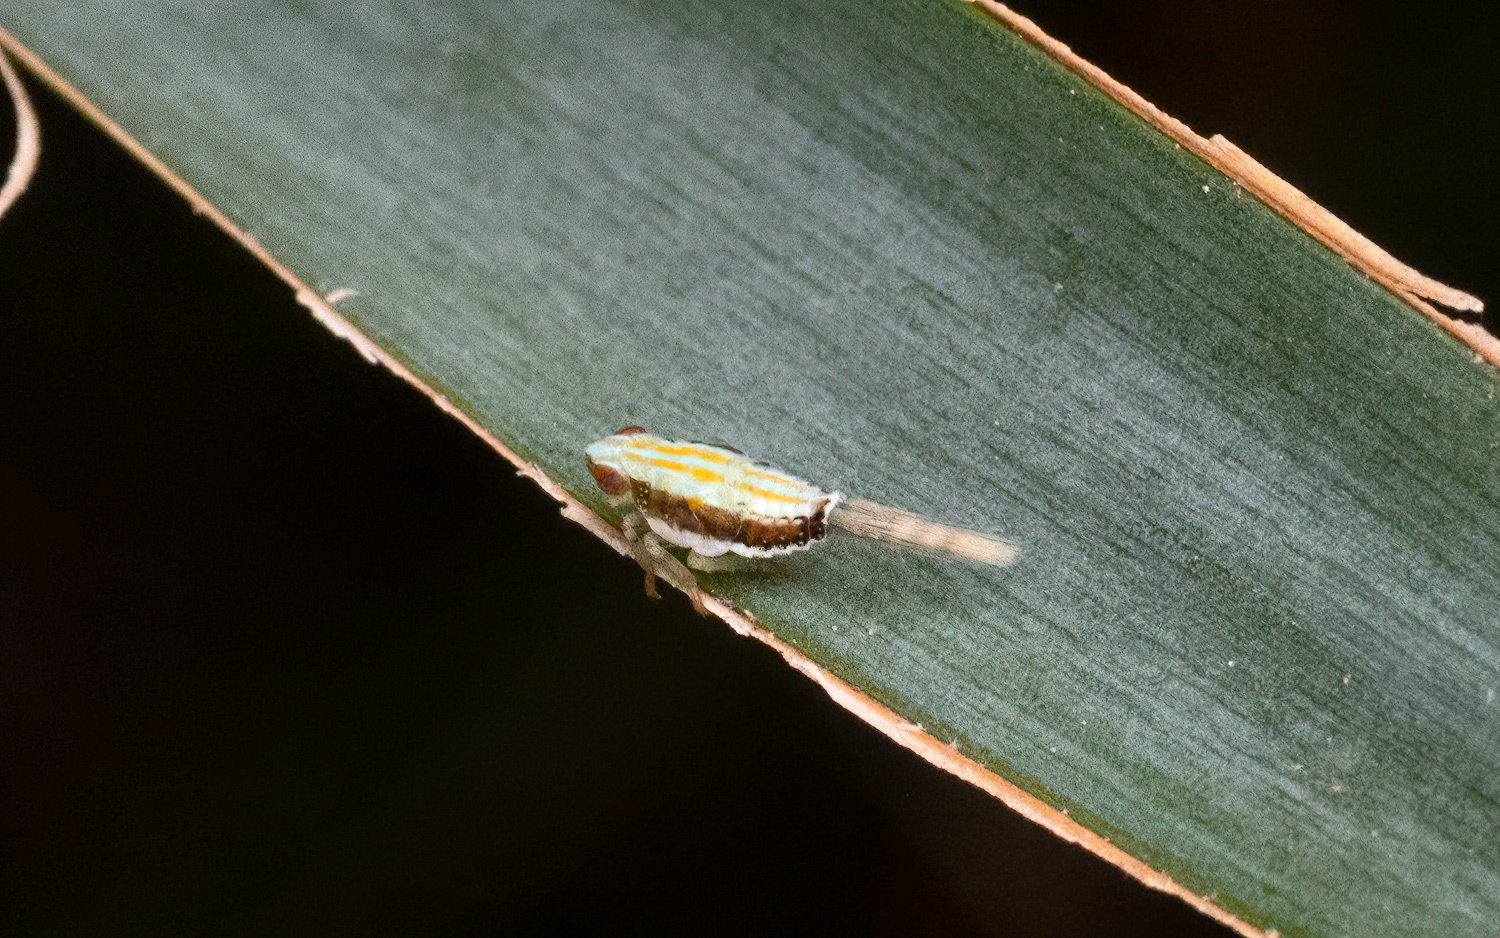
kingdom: Animalia
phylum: Arthropoda
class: Insecta
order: Hemiptera
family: Issidae
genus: Thionia
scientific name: Thionia bullata
